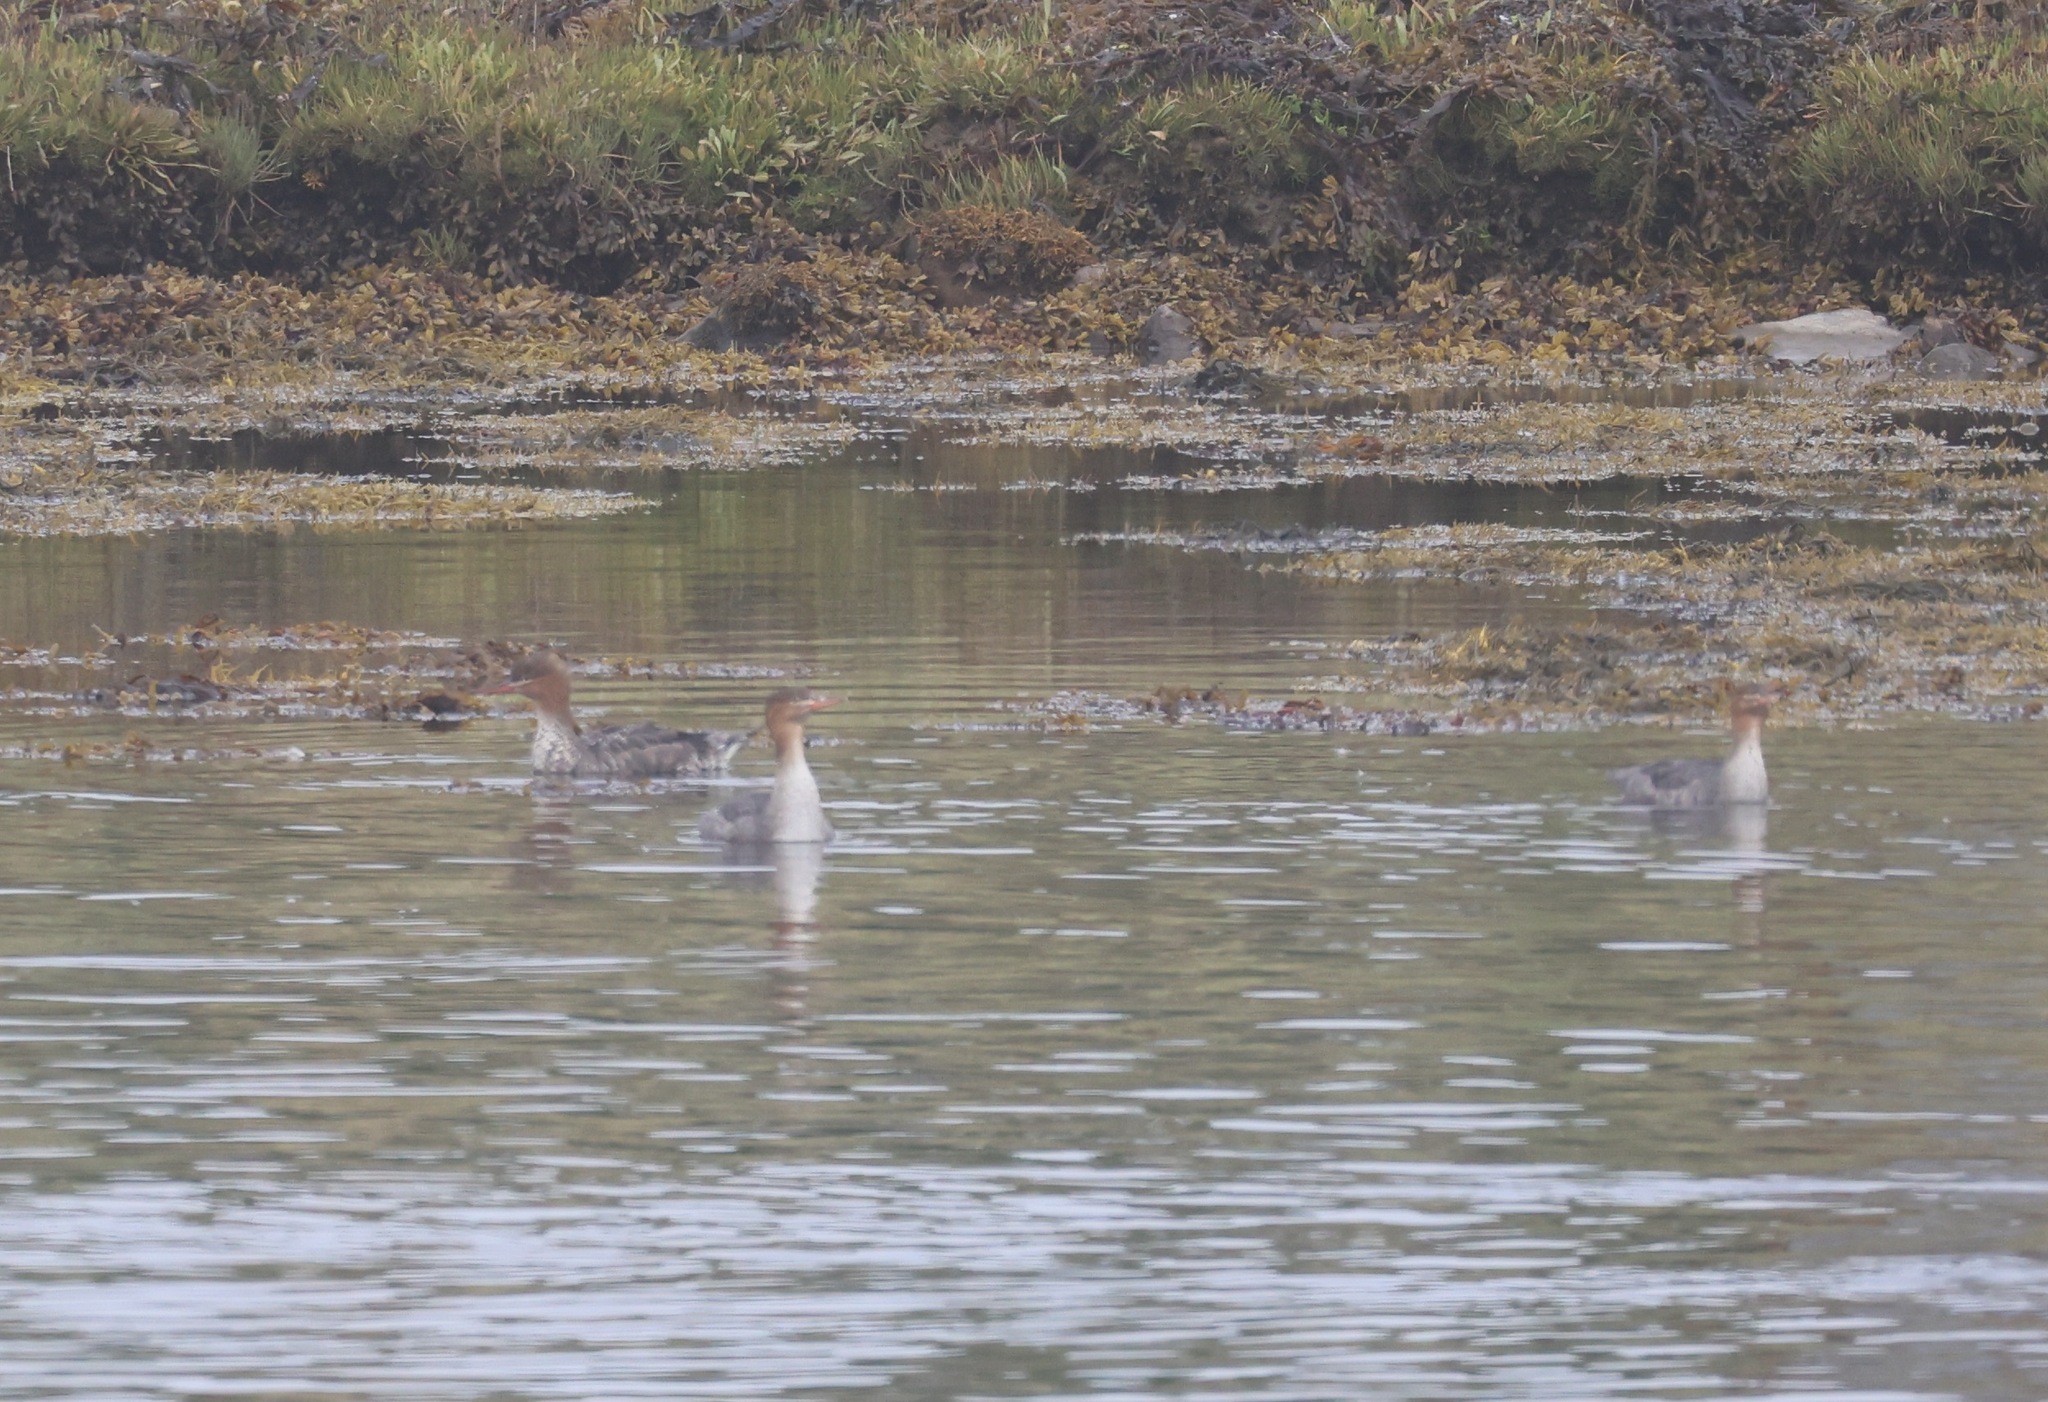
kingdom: Animalia
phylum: Chordata
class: Aves
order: Anseriformes
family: Anatidae
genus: Mergus
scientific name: Mergus serrator
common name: Red-breasted merganser
